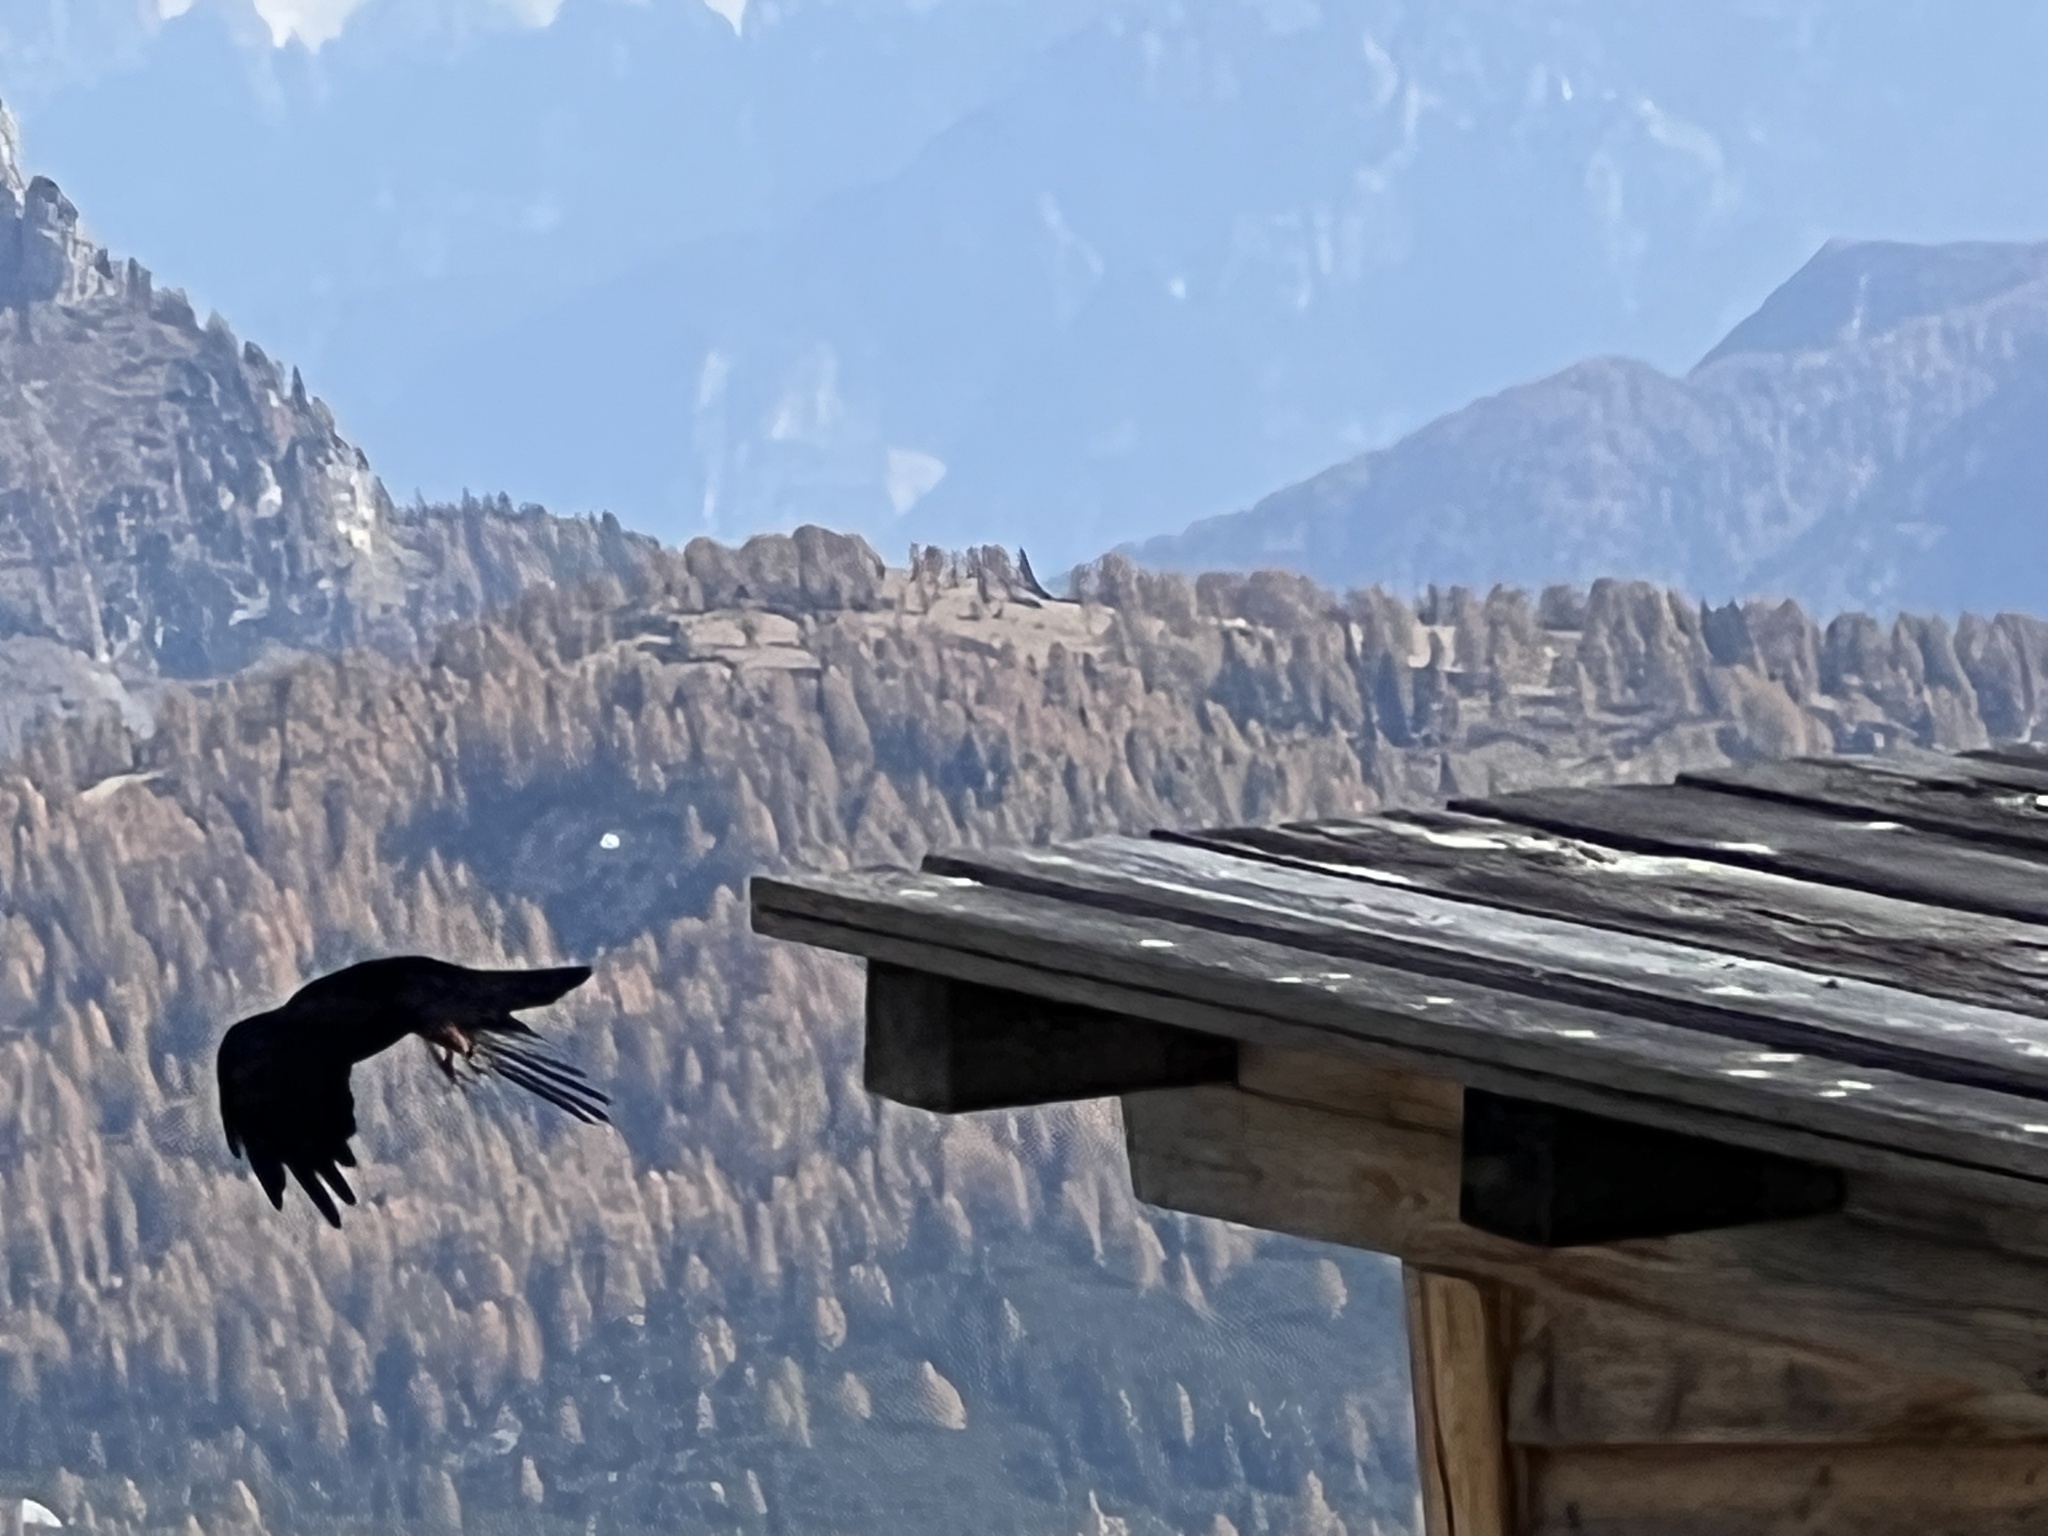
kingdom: Animalia
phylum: Chordata
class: Aves
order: Passeriformes
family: Corvidae
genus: Pyrrhocorax
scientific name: Pyrrhocorax graculus
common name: Alpine chough
